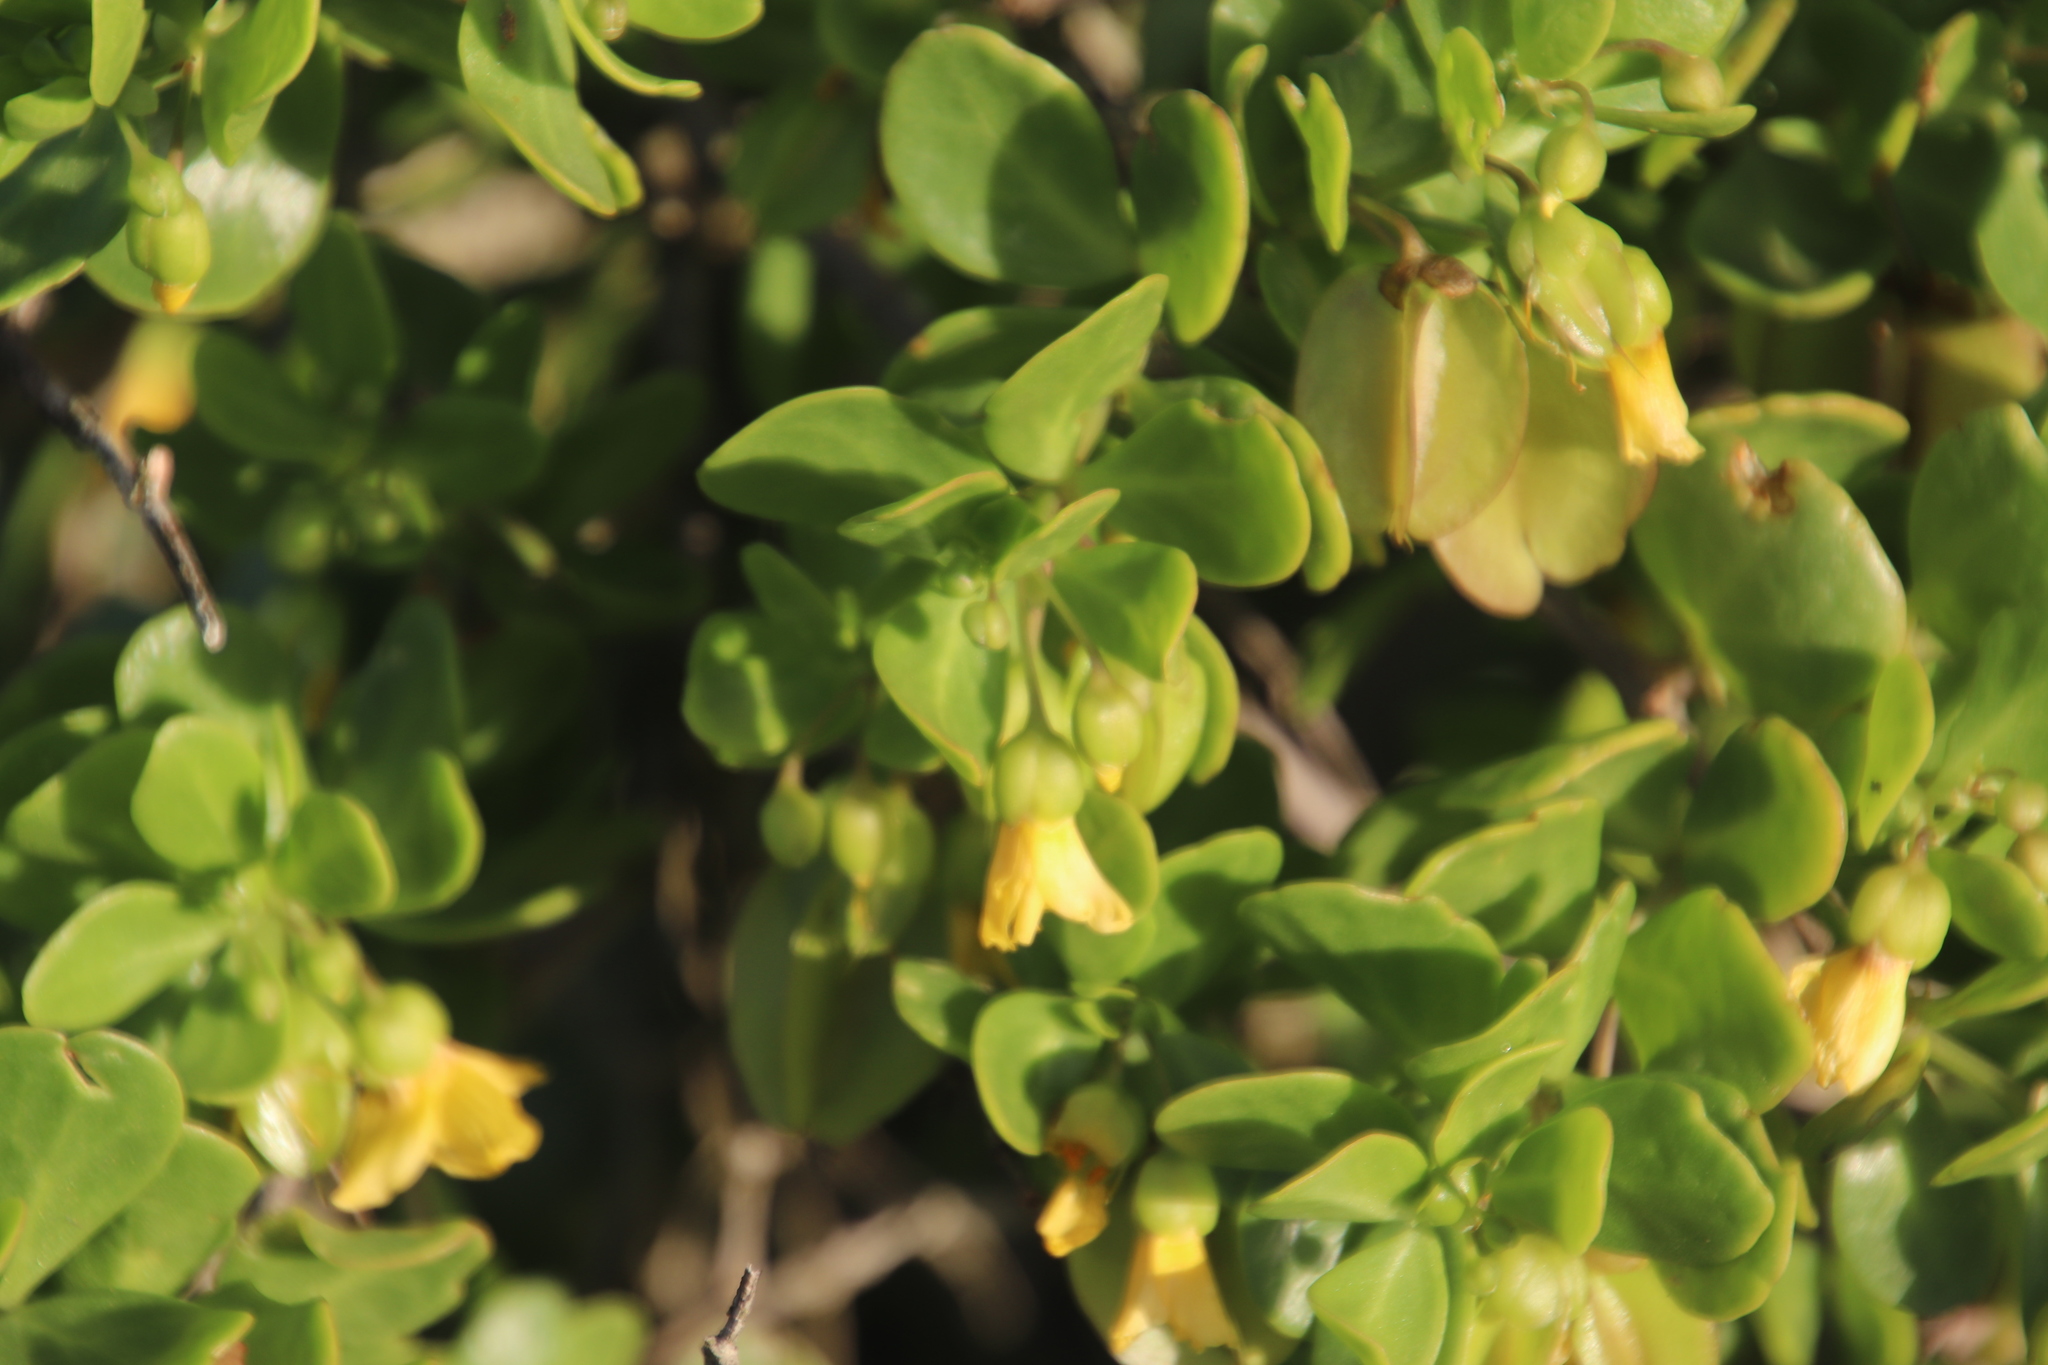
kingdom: Plantae
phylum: Tracheophyta
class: Magnoliopsida
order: Zygophyllales
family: Zygophyllaceae
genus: Roepera
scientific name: Roepera morgsana
